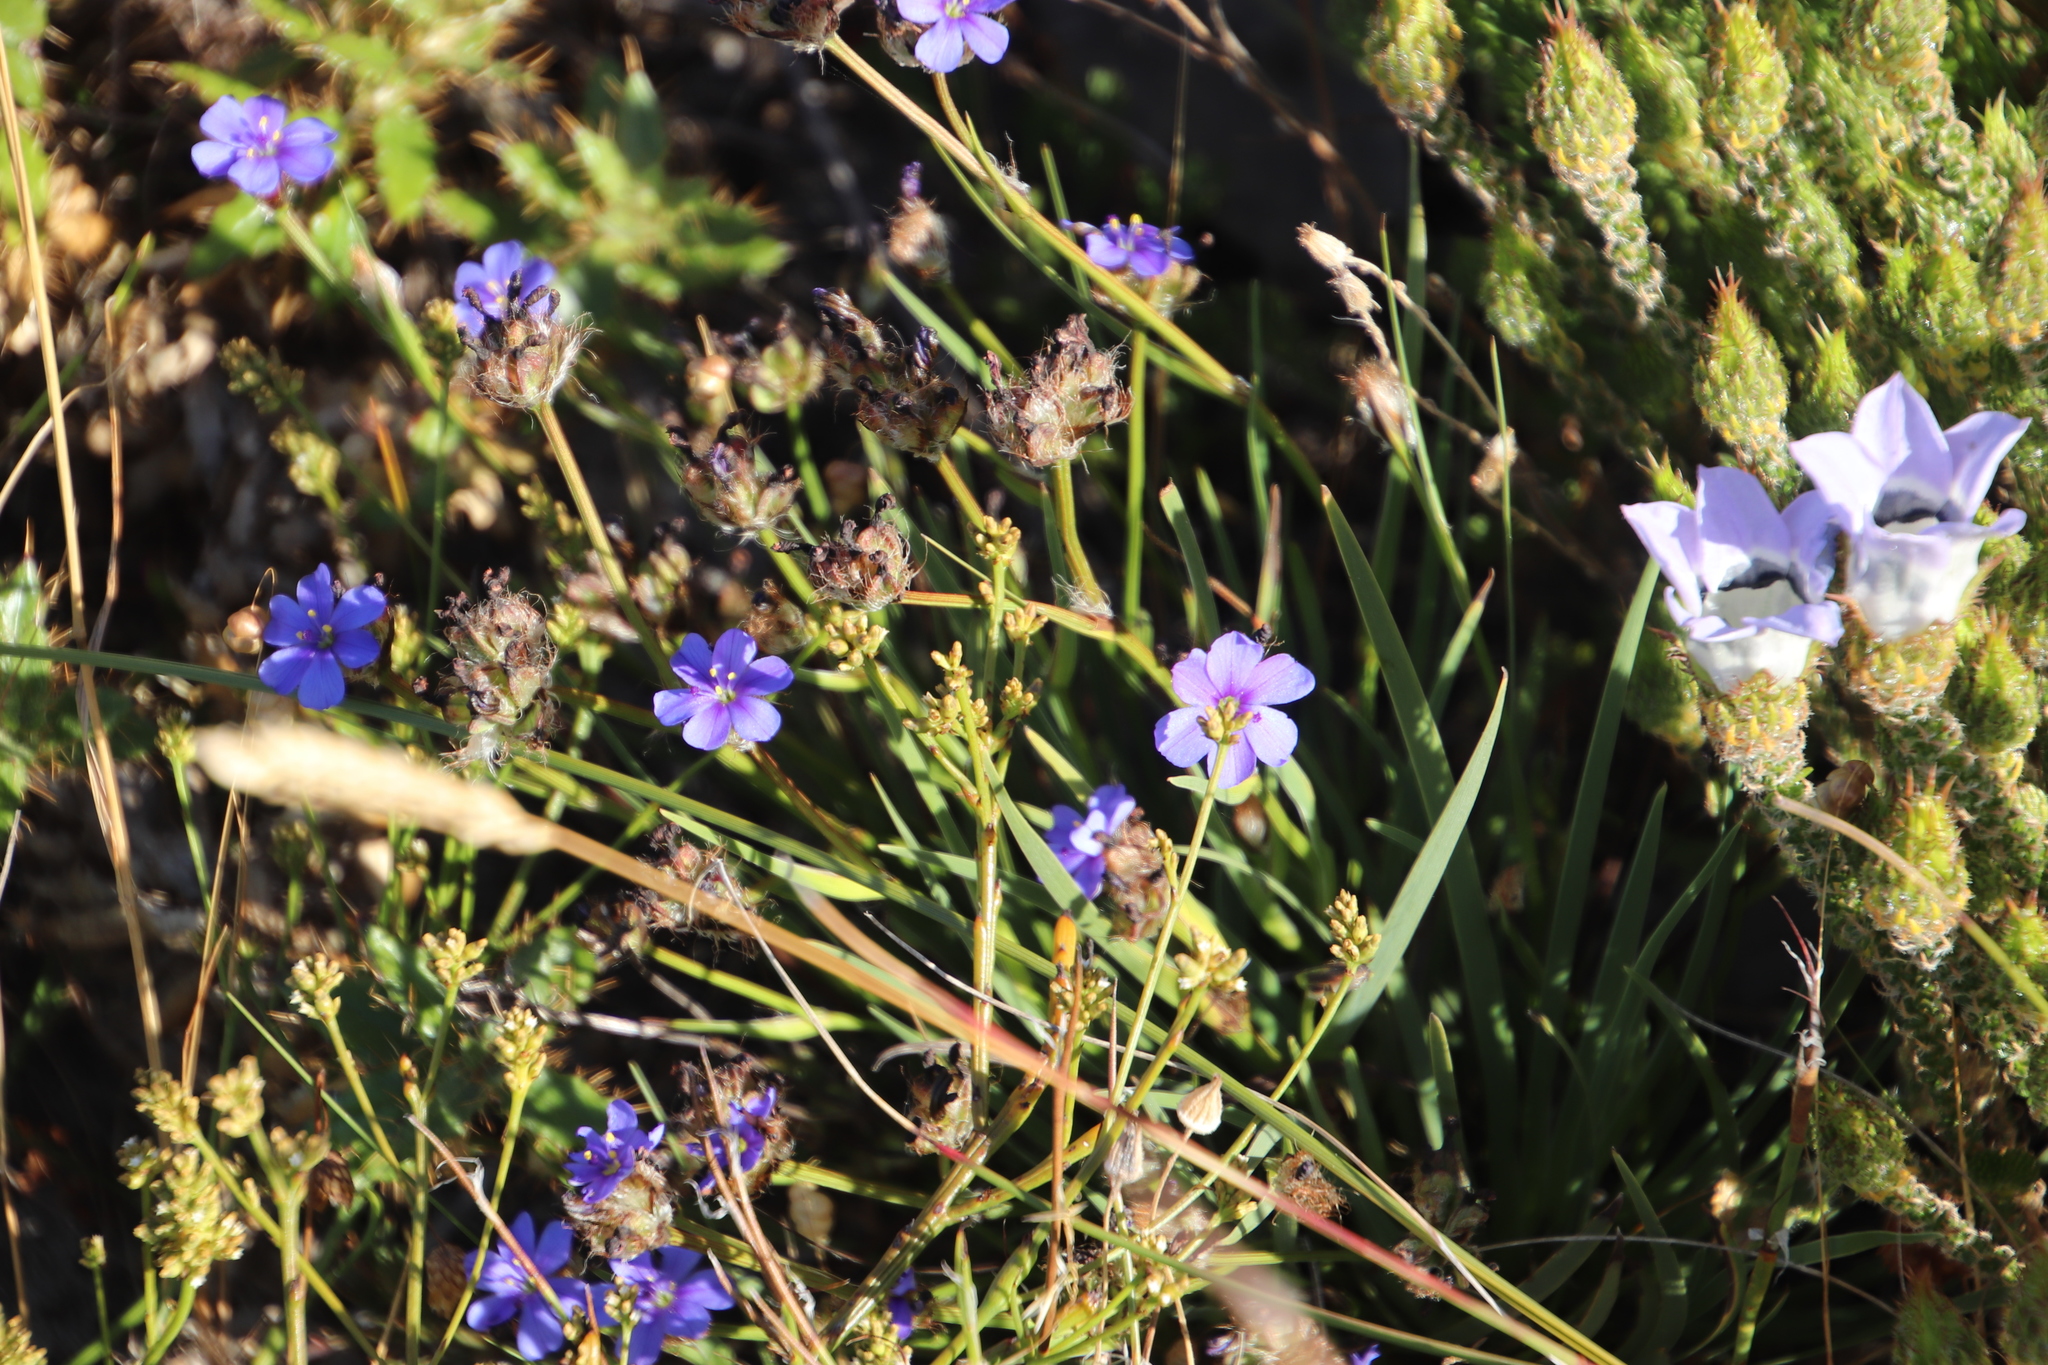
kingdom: Plantae
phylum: Tracheophyta
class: Liliopsida
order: Asparagales
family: Iridaceae
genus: Aristea
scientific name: Aristea africana
